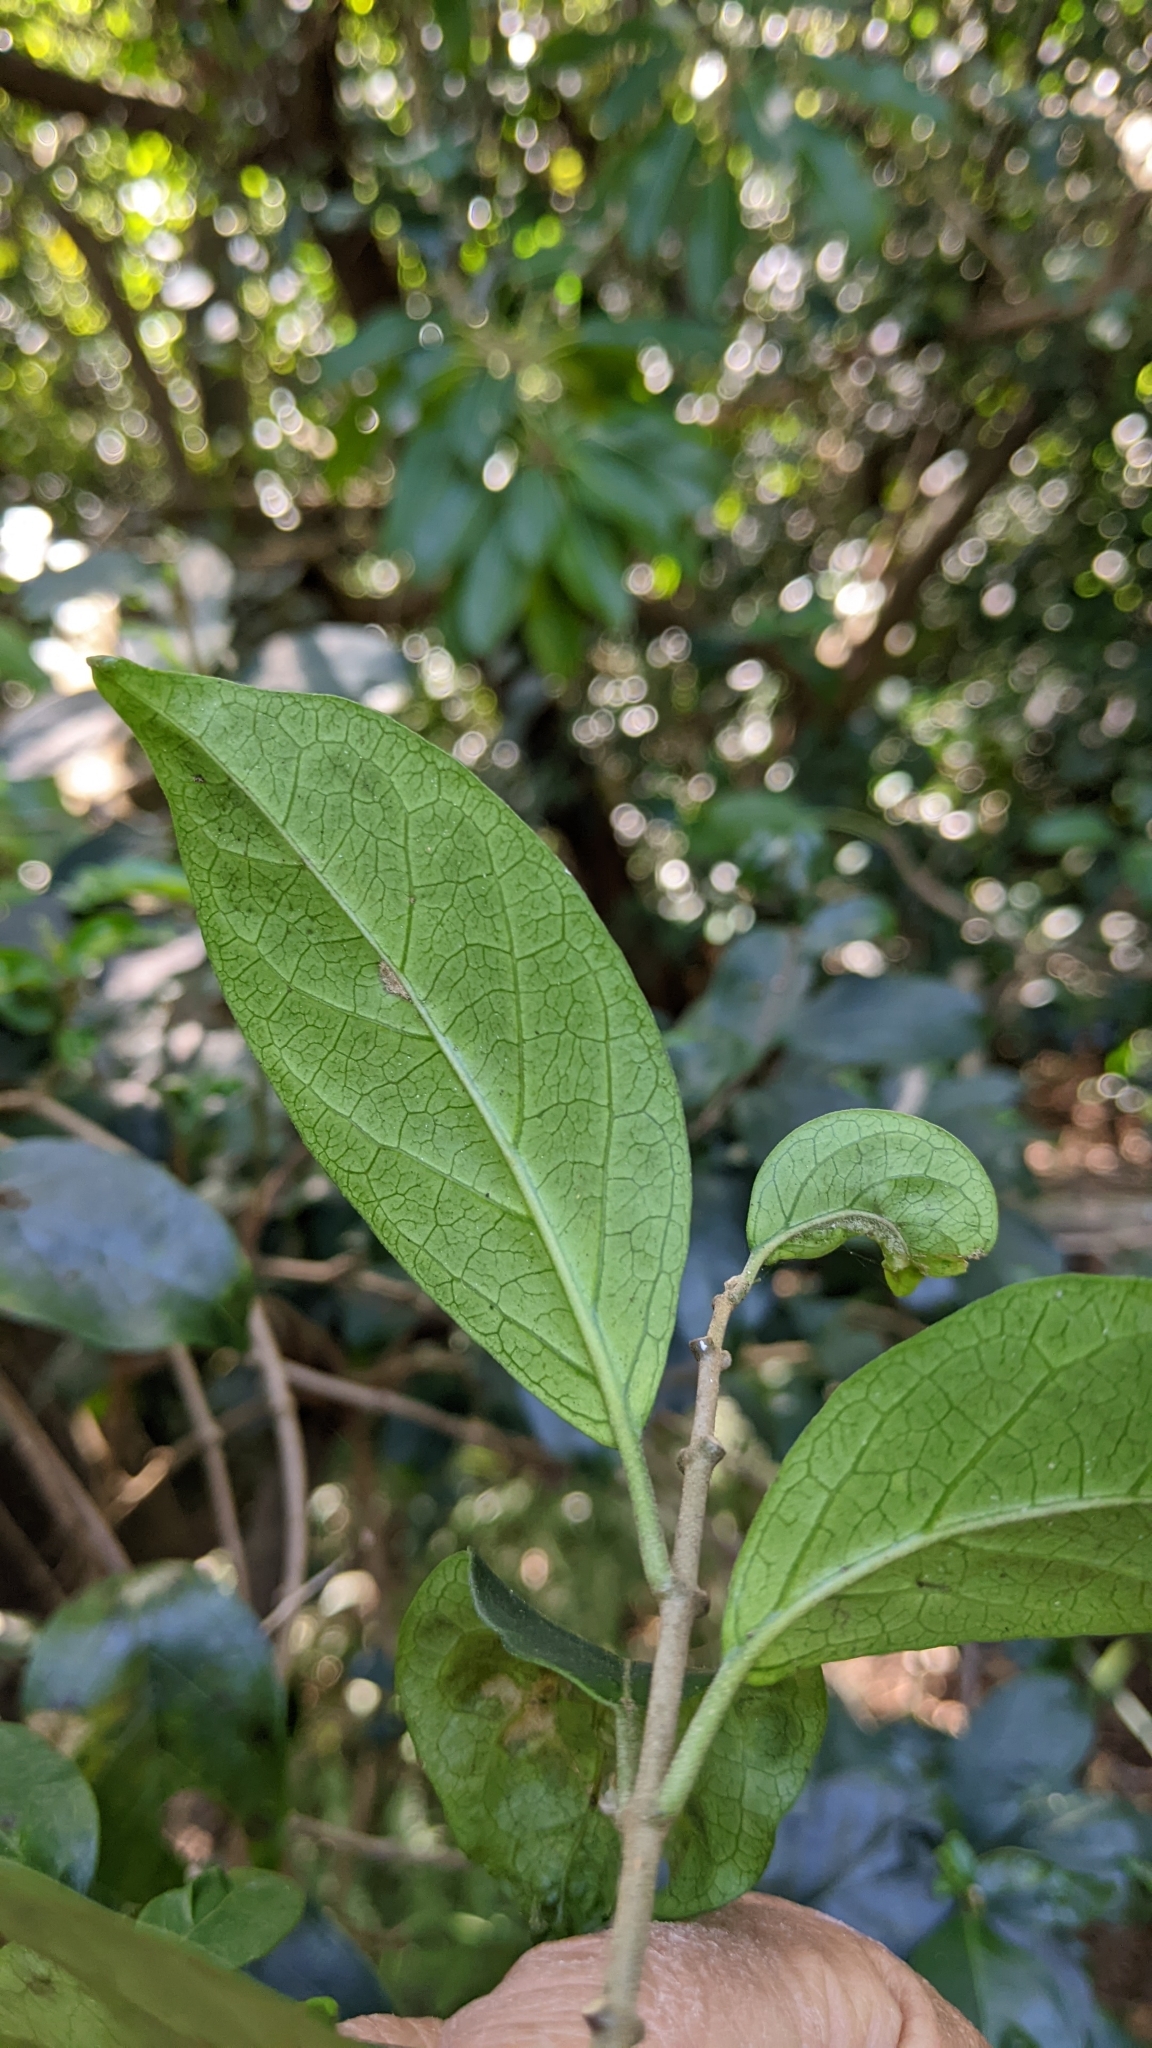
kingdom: Plantae
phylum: Tracheophyta
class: Magnoliopsida
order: Gentianales
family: Apocynaceae
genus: Gymnema
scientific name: Gymnema sylvestre
